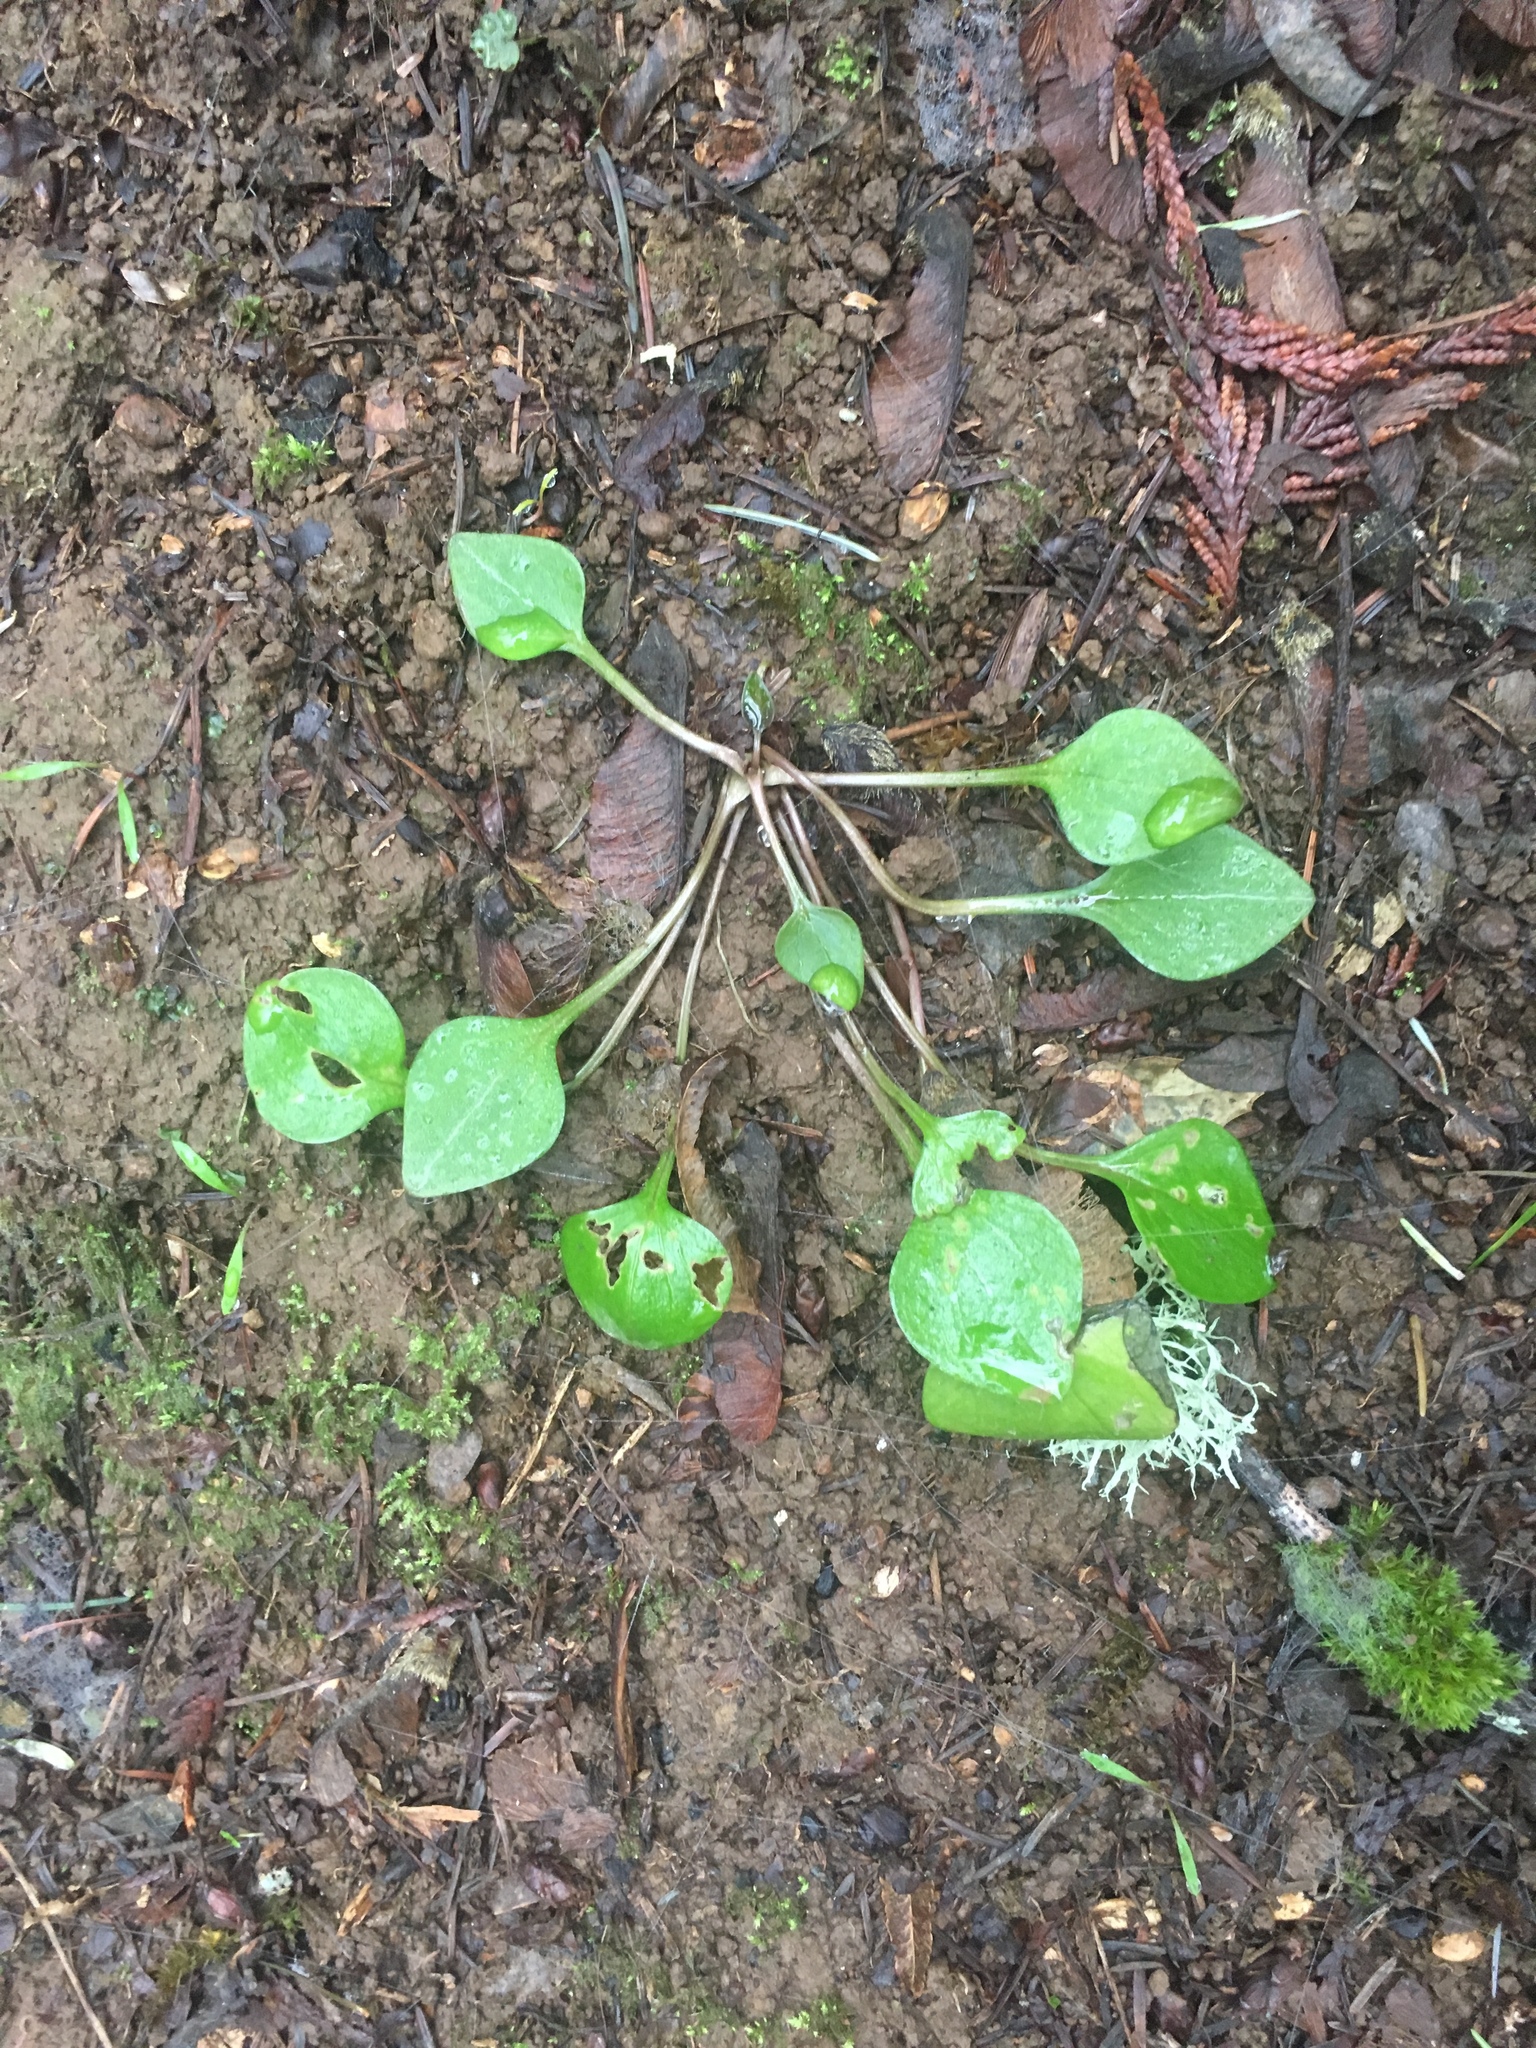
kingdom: Plantae
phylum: Tracheophyta
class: Magnoliopsida
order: Caryophyllales
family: Montiaceae
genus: Claytonia
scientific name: Claytonia sibirica
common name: Pink purslane
